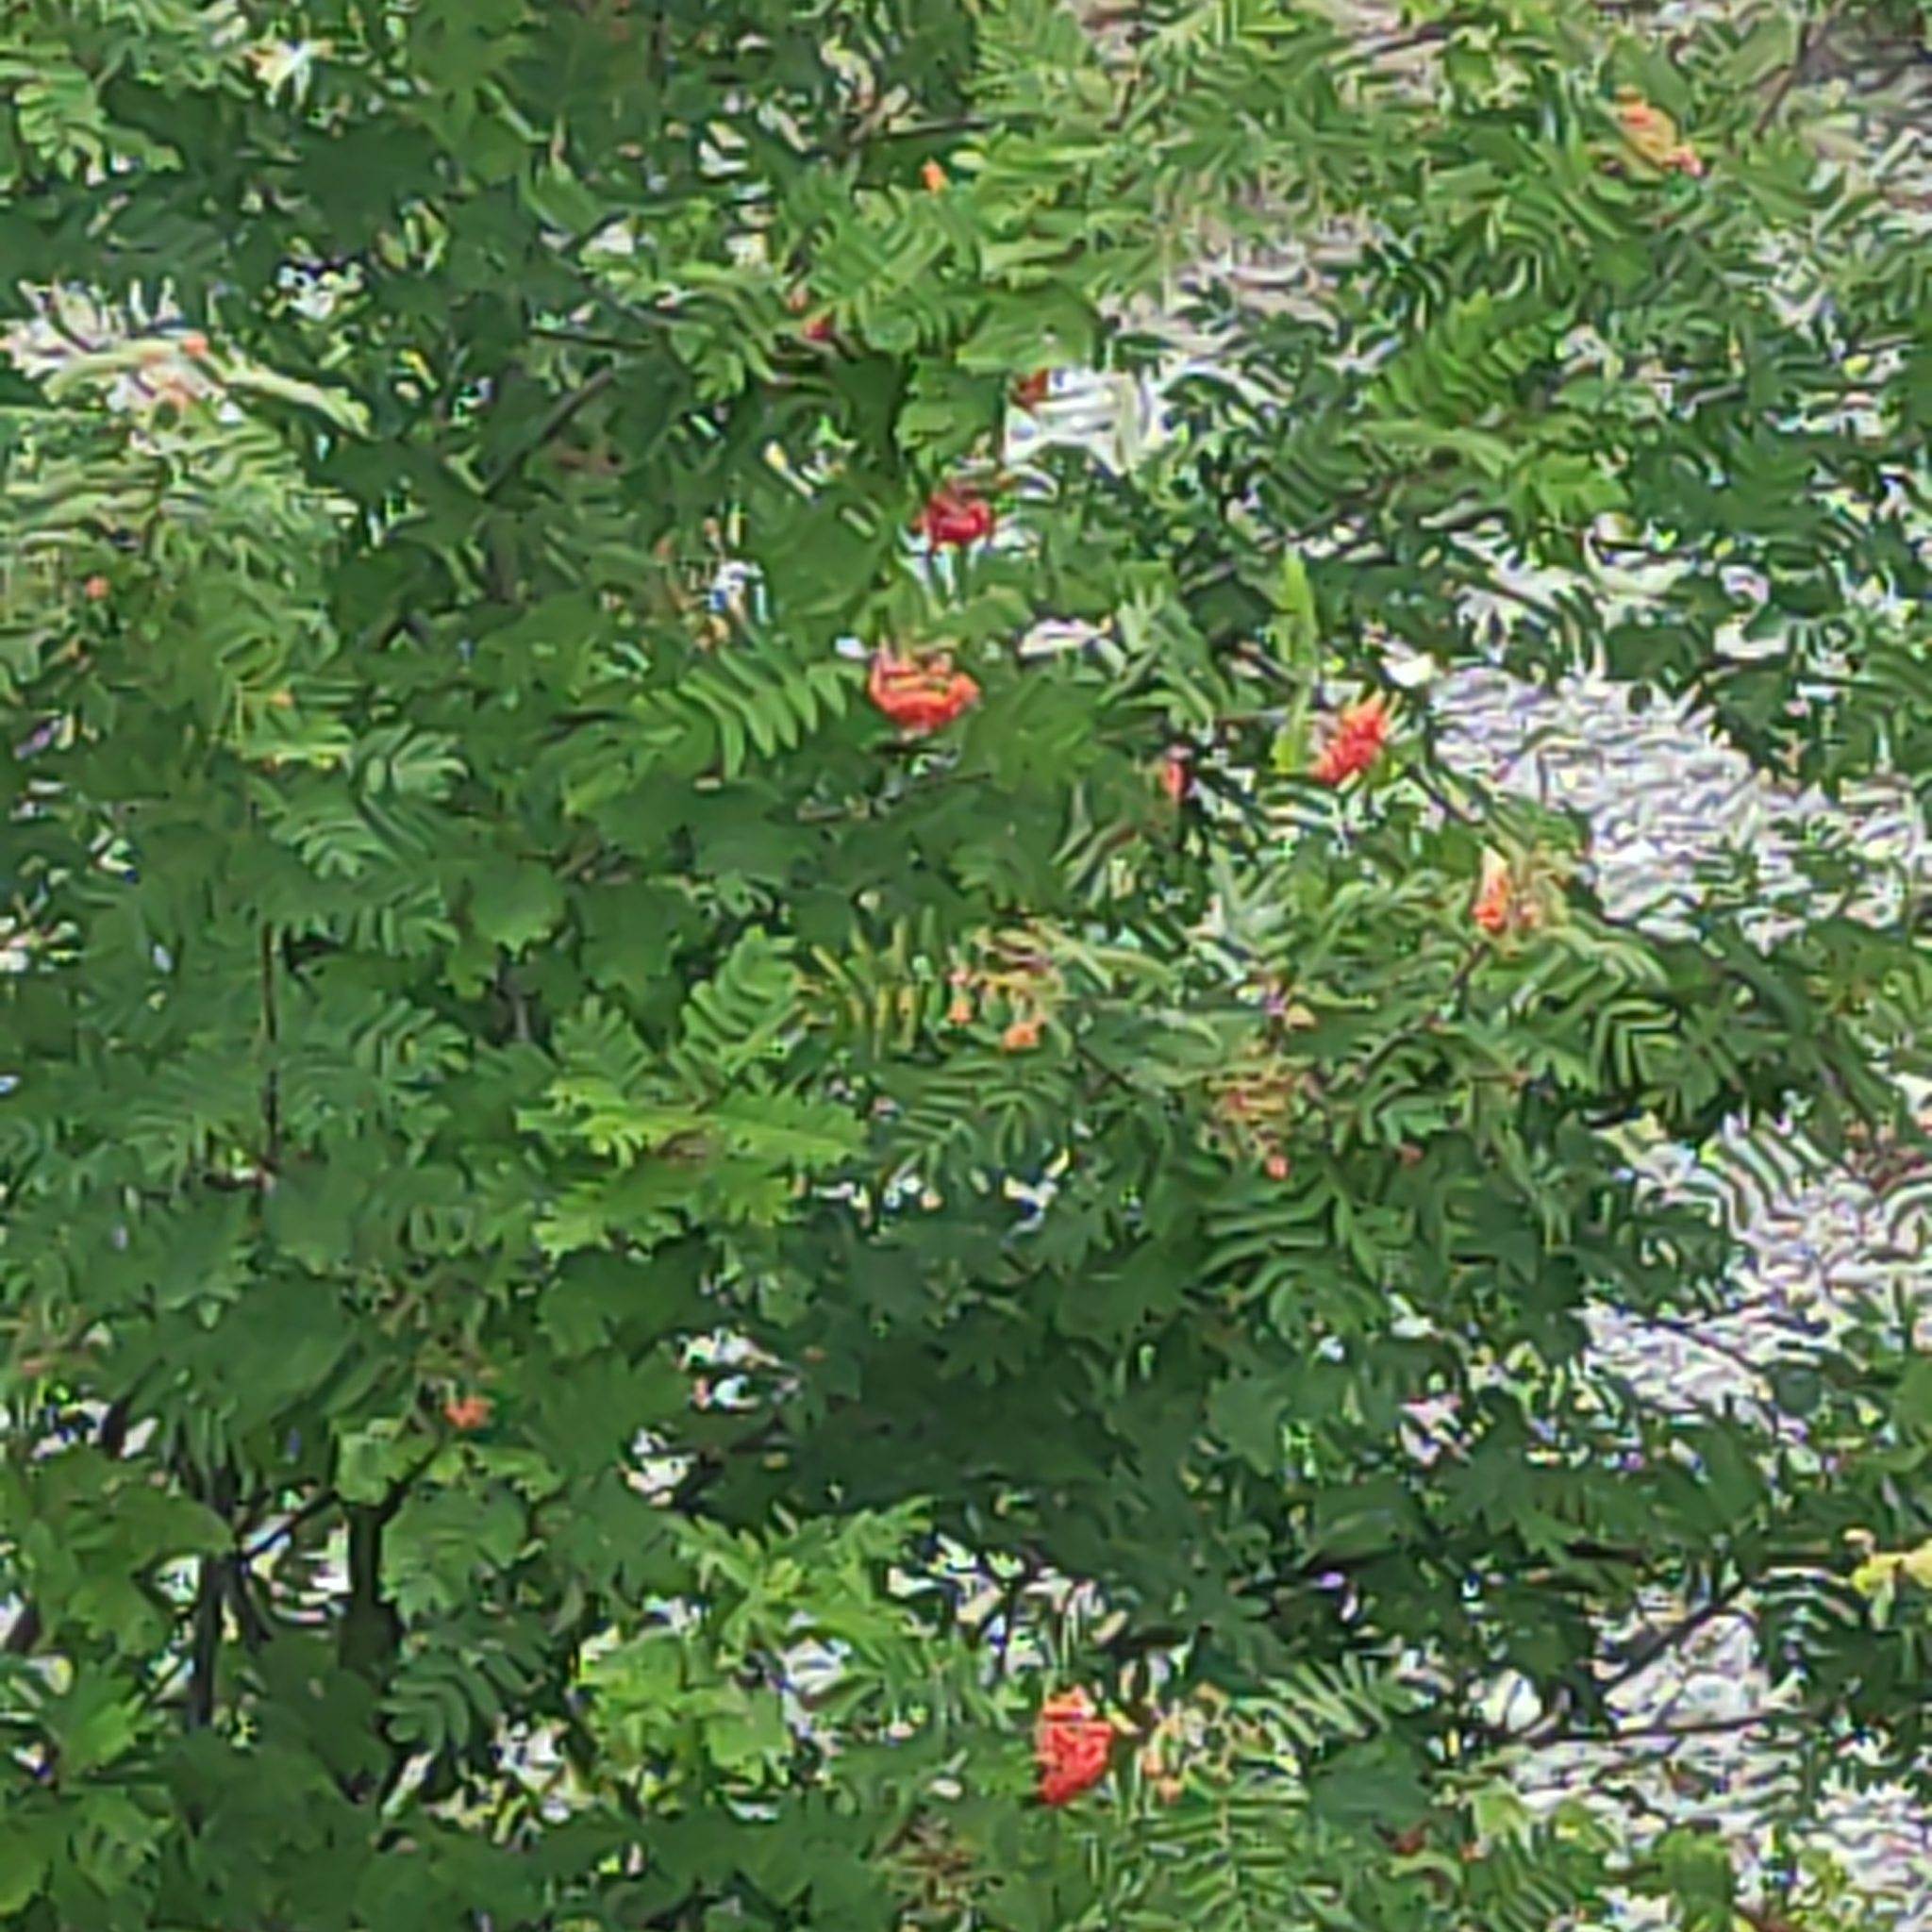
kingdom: Plantae
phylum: Tracheophyta
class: Magnoliopsida
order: Rosales
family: Rosaceae
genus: Sorbus
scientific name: Sorbus aucuparia
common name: Rowan
